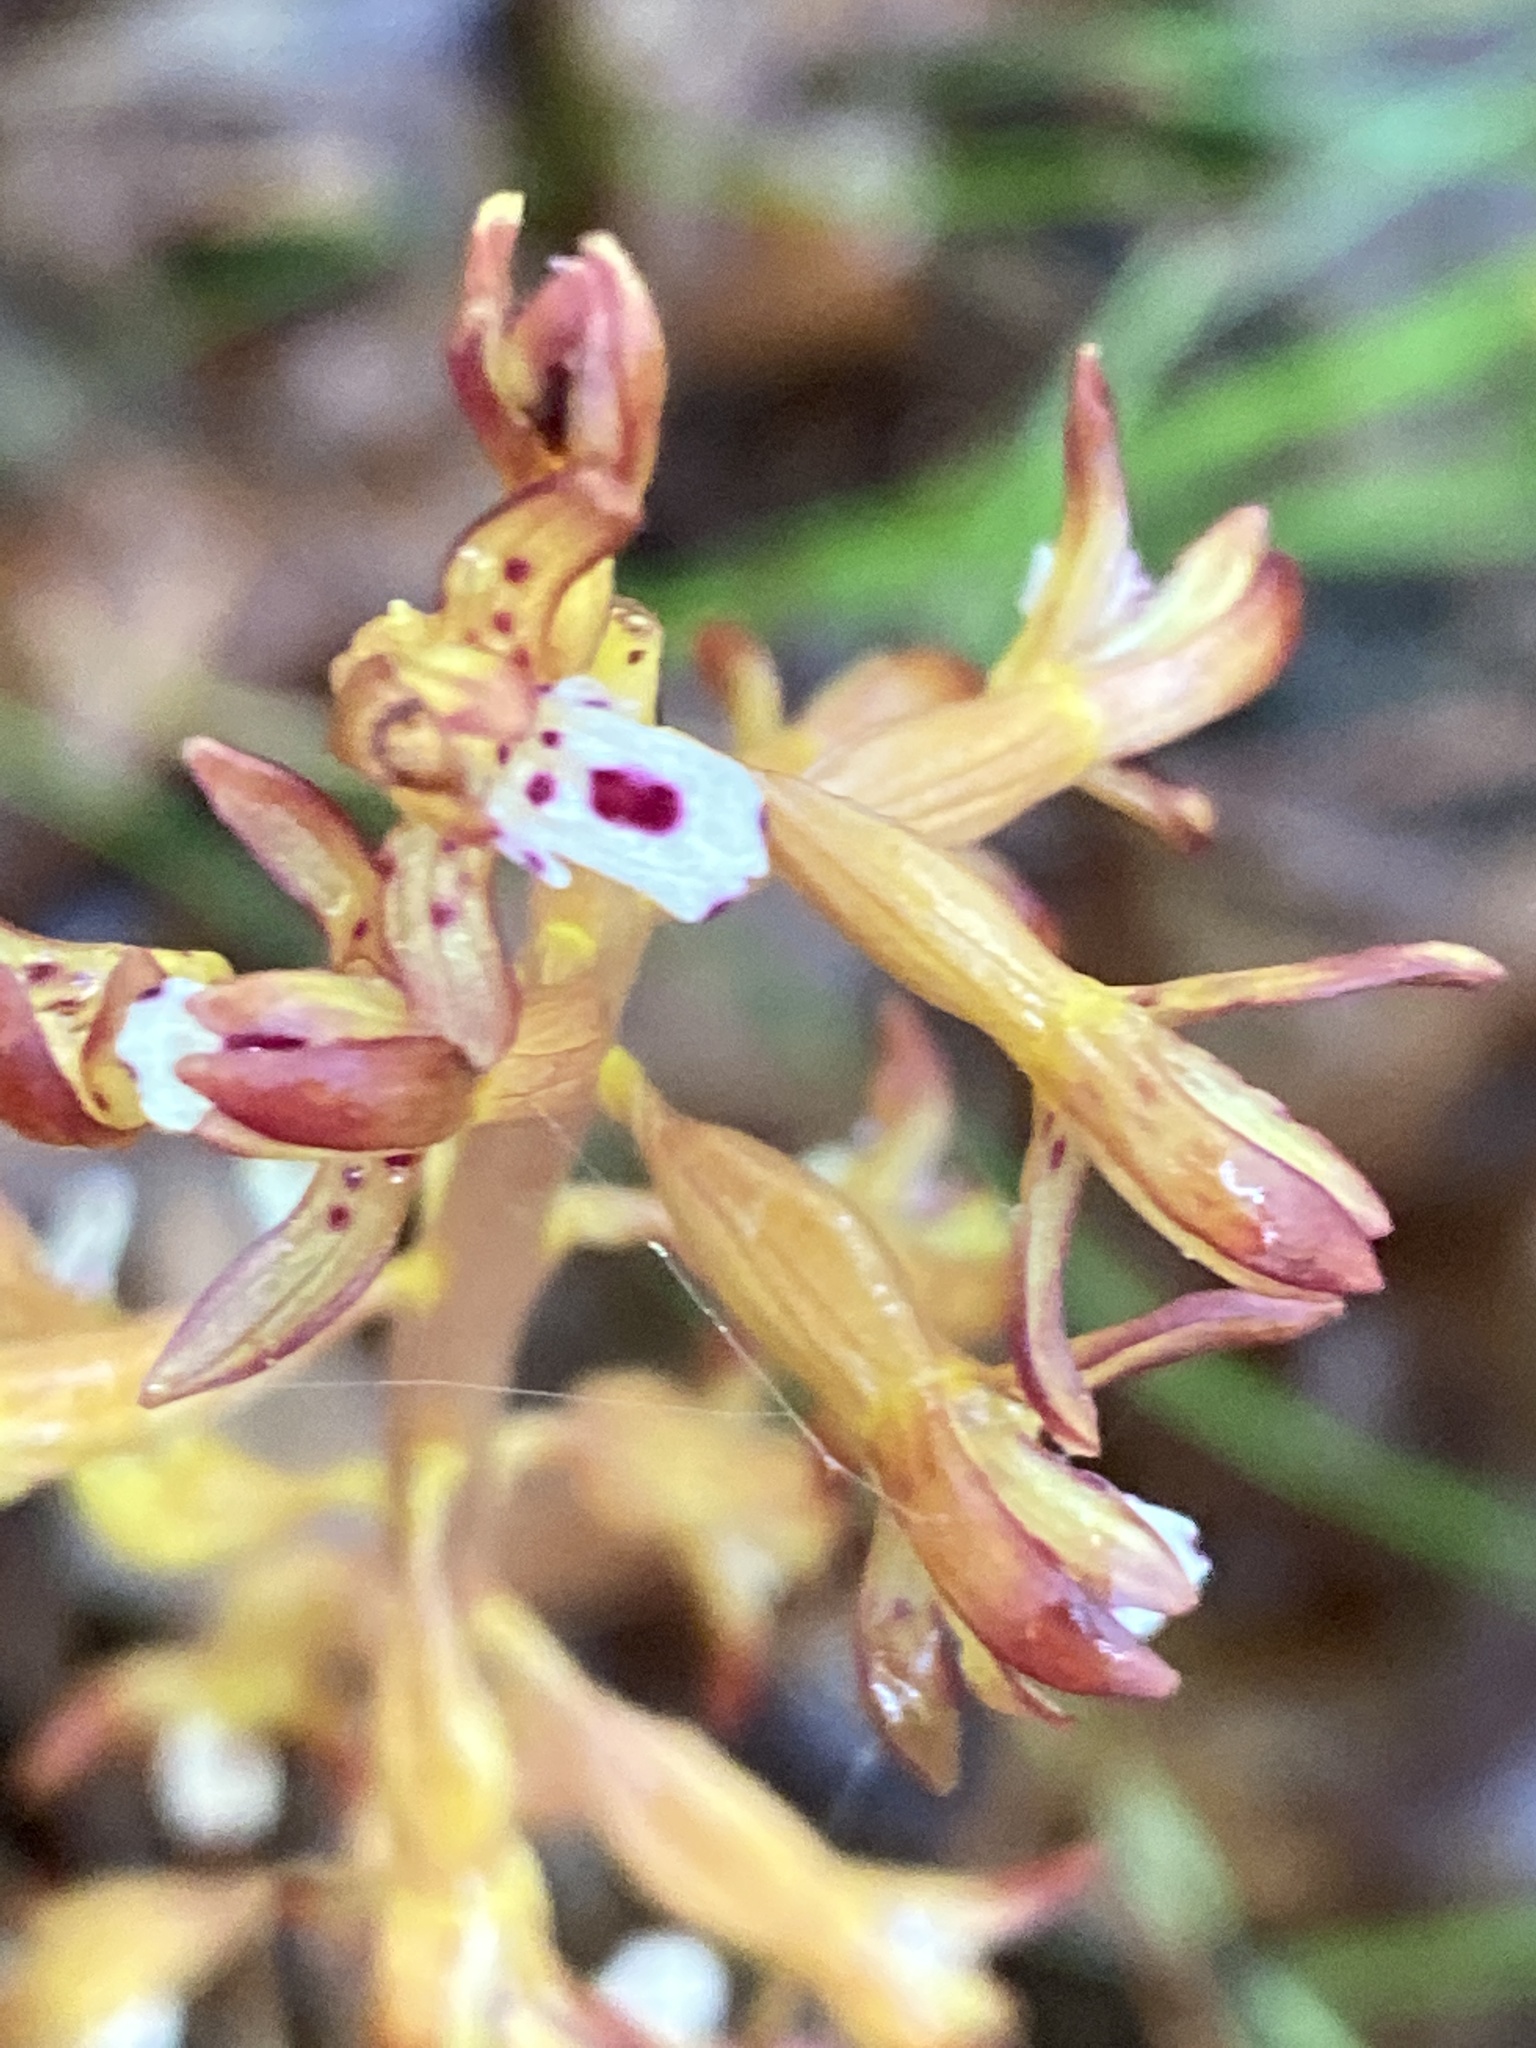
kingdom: Plantae
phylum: Tracheophyta
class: Liliopsida
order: Asparagales
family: Orchidaceae
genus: Corallorhiza
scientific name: Corallorhiza maculata
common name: Spotted coralroot
